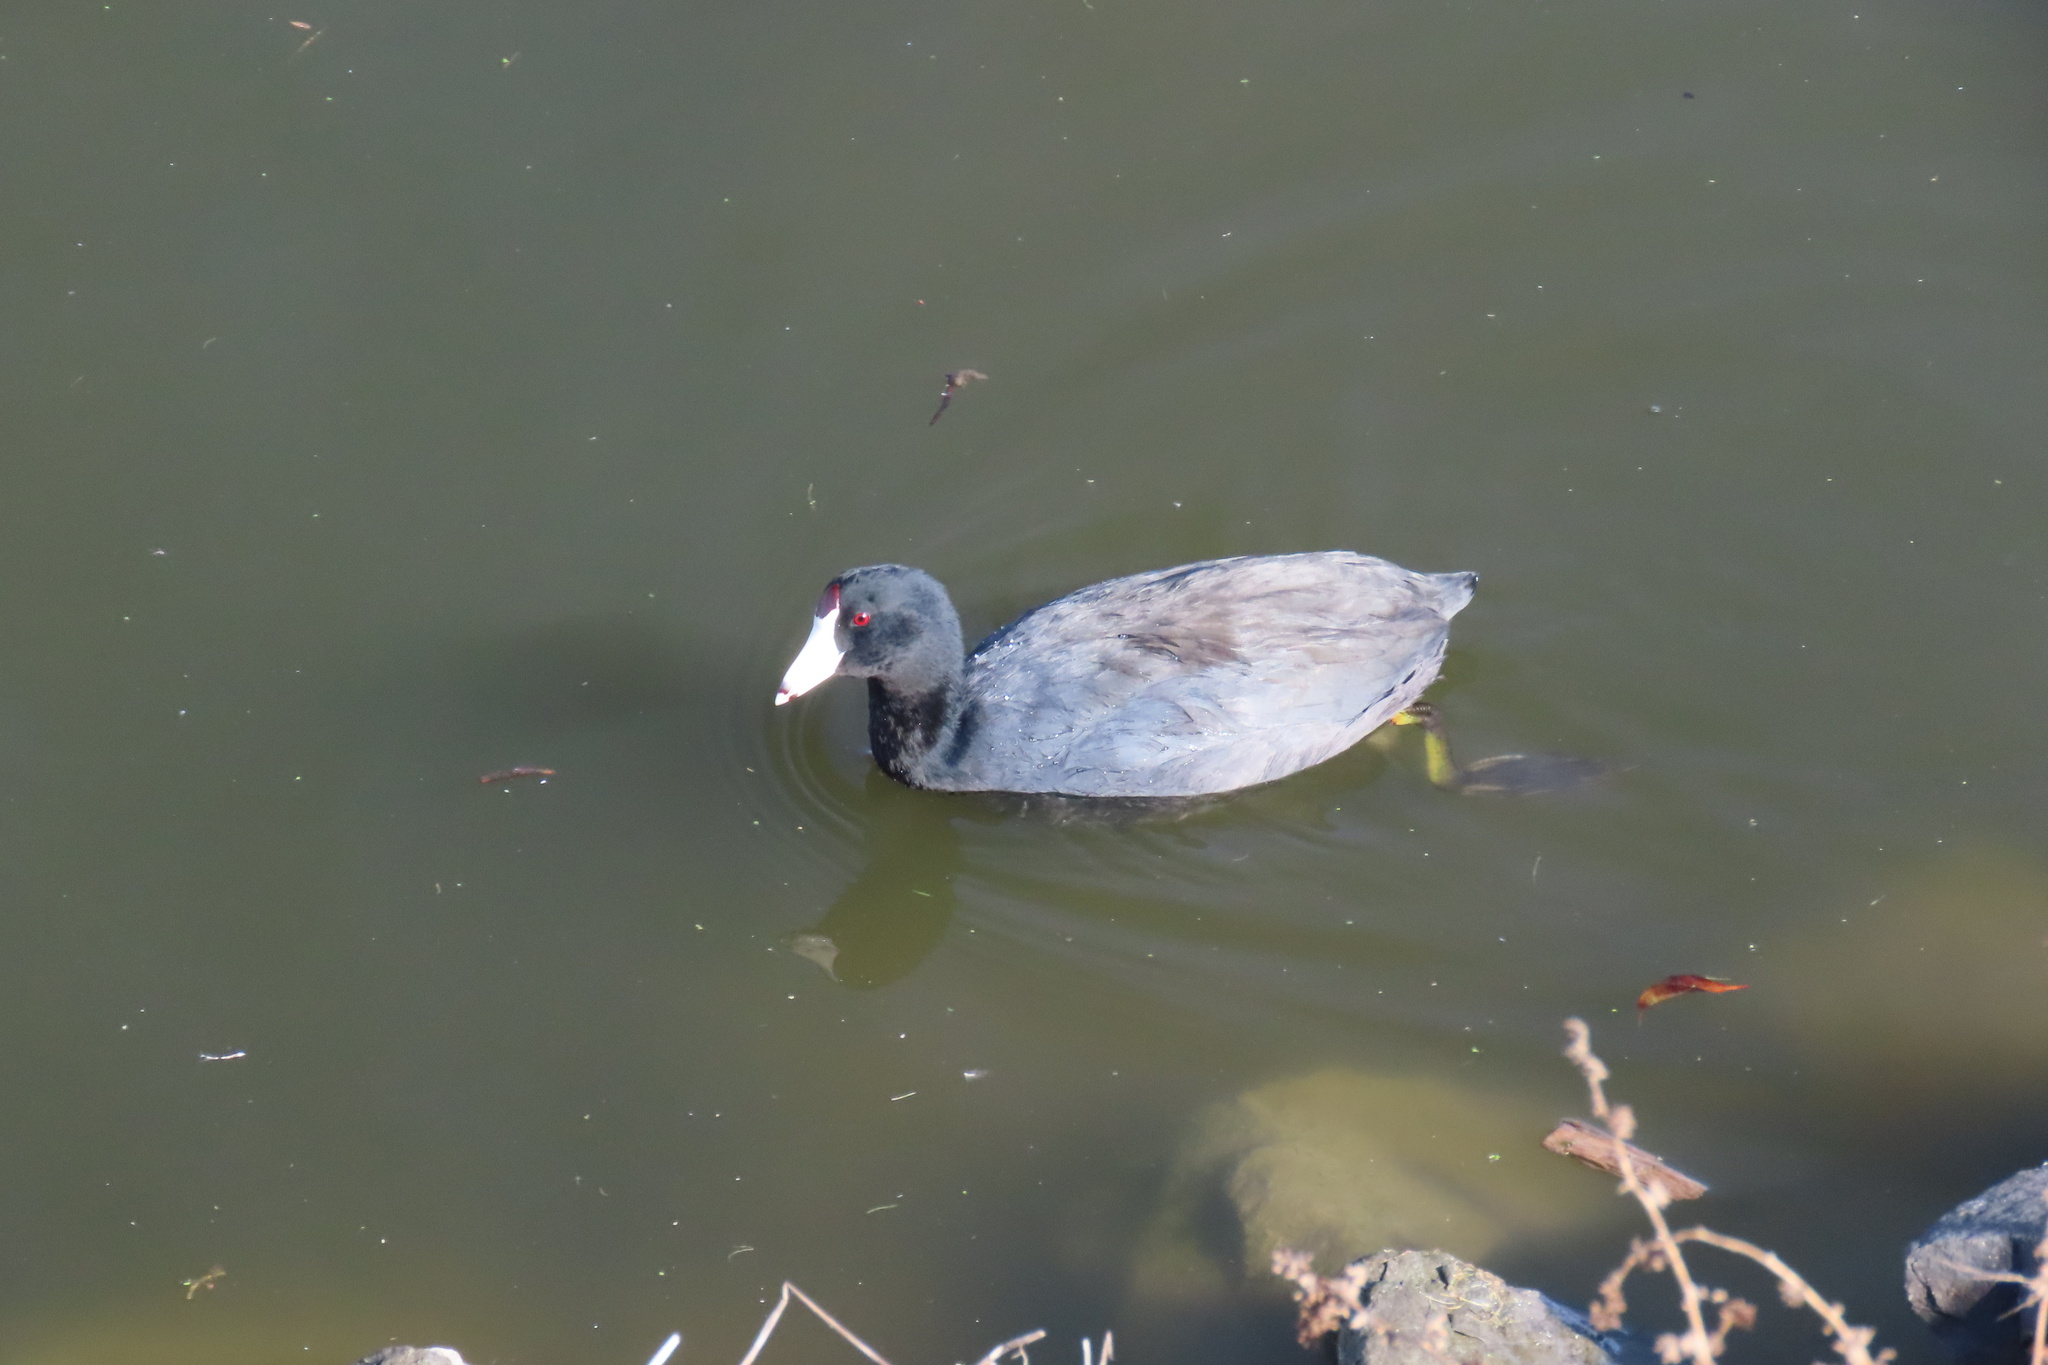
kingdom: Animalia
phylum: Chordata
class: Aves
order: Gruiformes
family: Rallidae
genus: Fulica
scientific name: Fulica americana
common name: American coot
